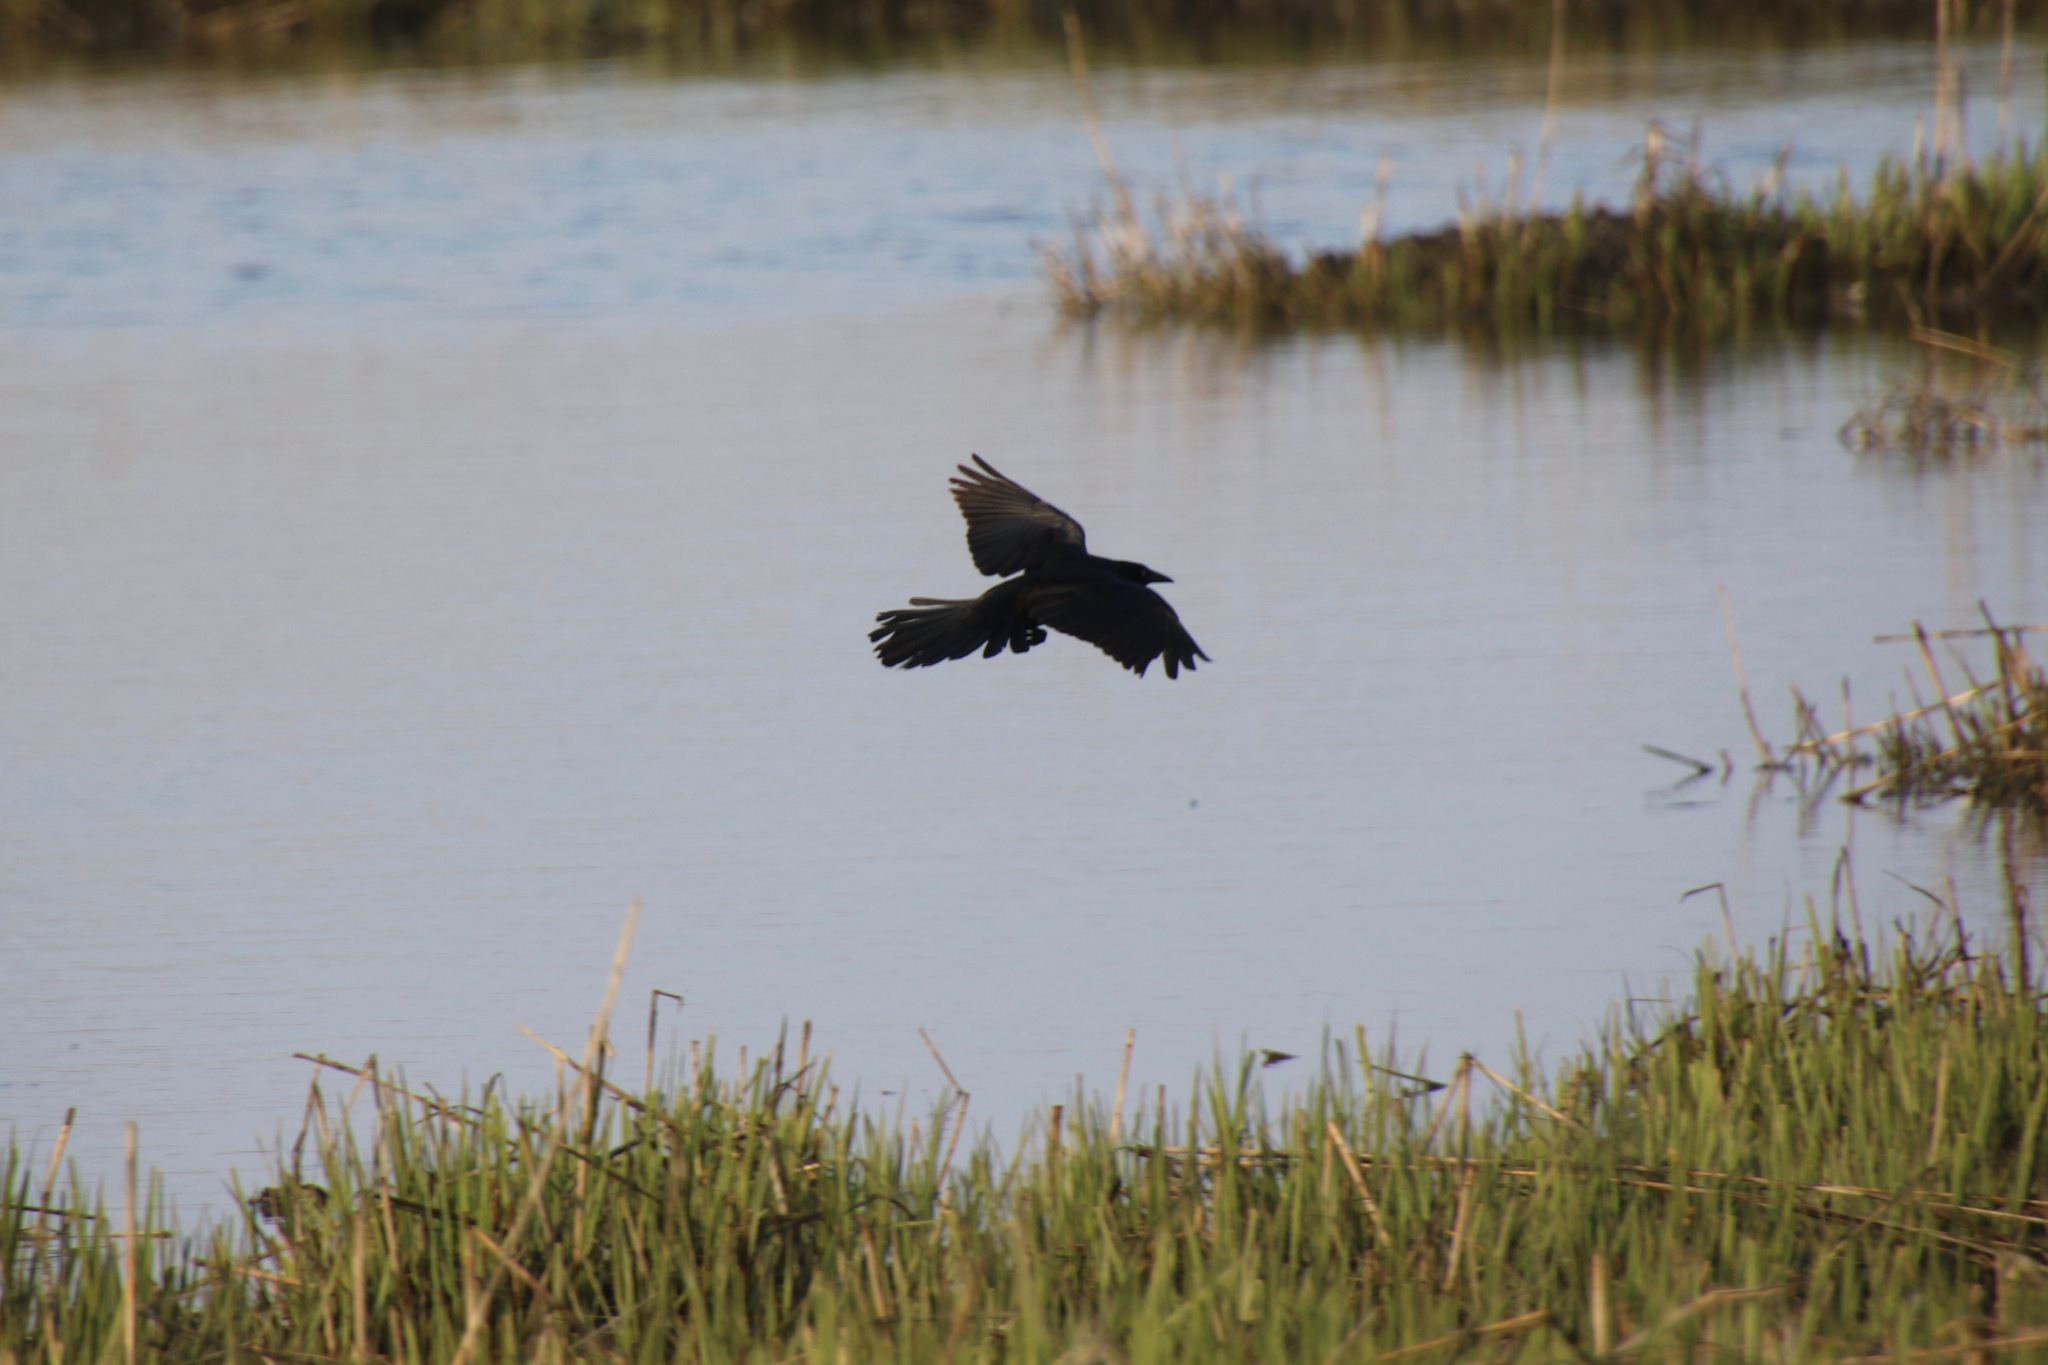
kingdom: Animalia
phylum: Chordata
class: Aves
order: Passeriformes
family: Icteridae
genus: Quiscalus
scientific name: Quiscalus major
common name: Boat-tailed grackle
